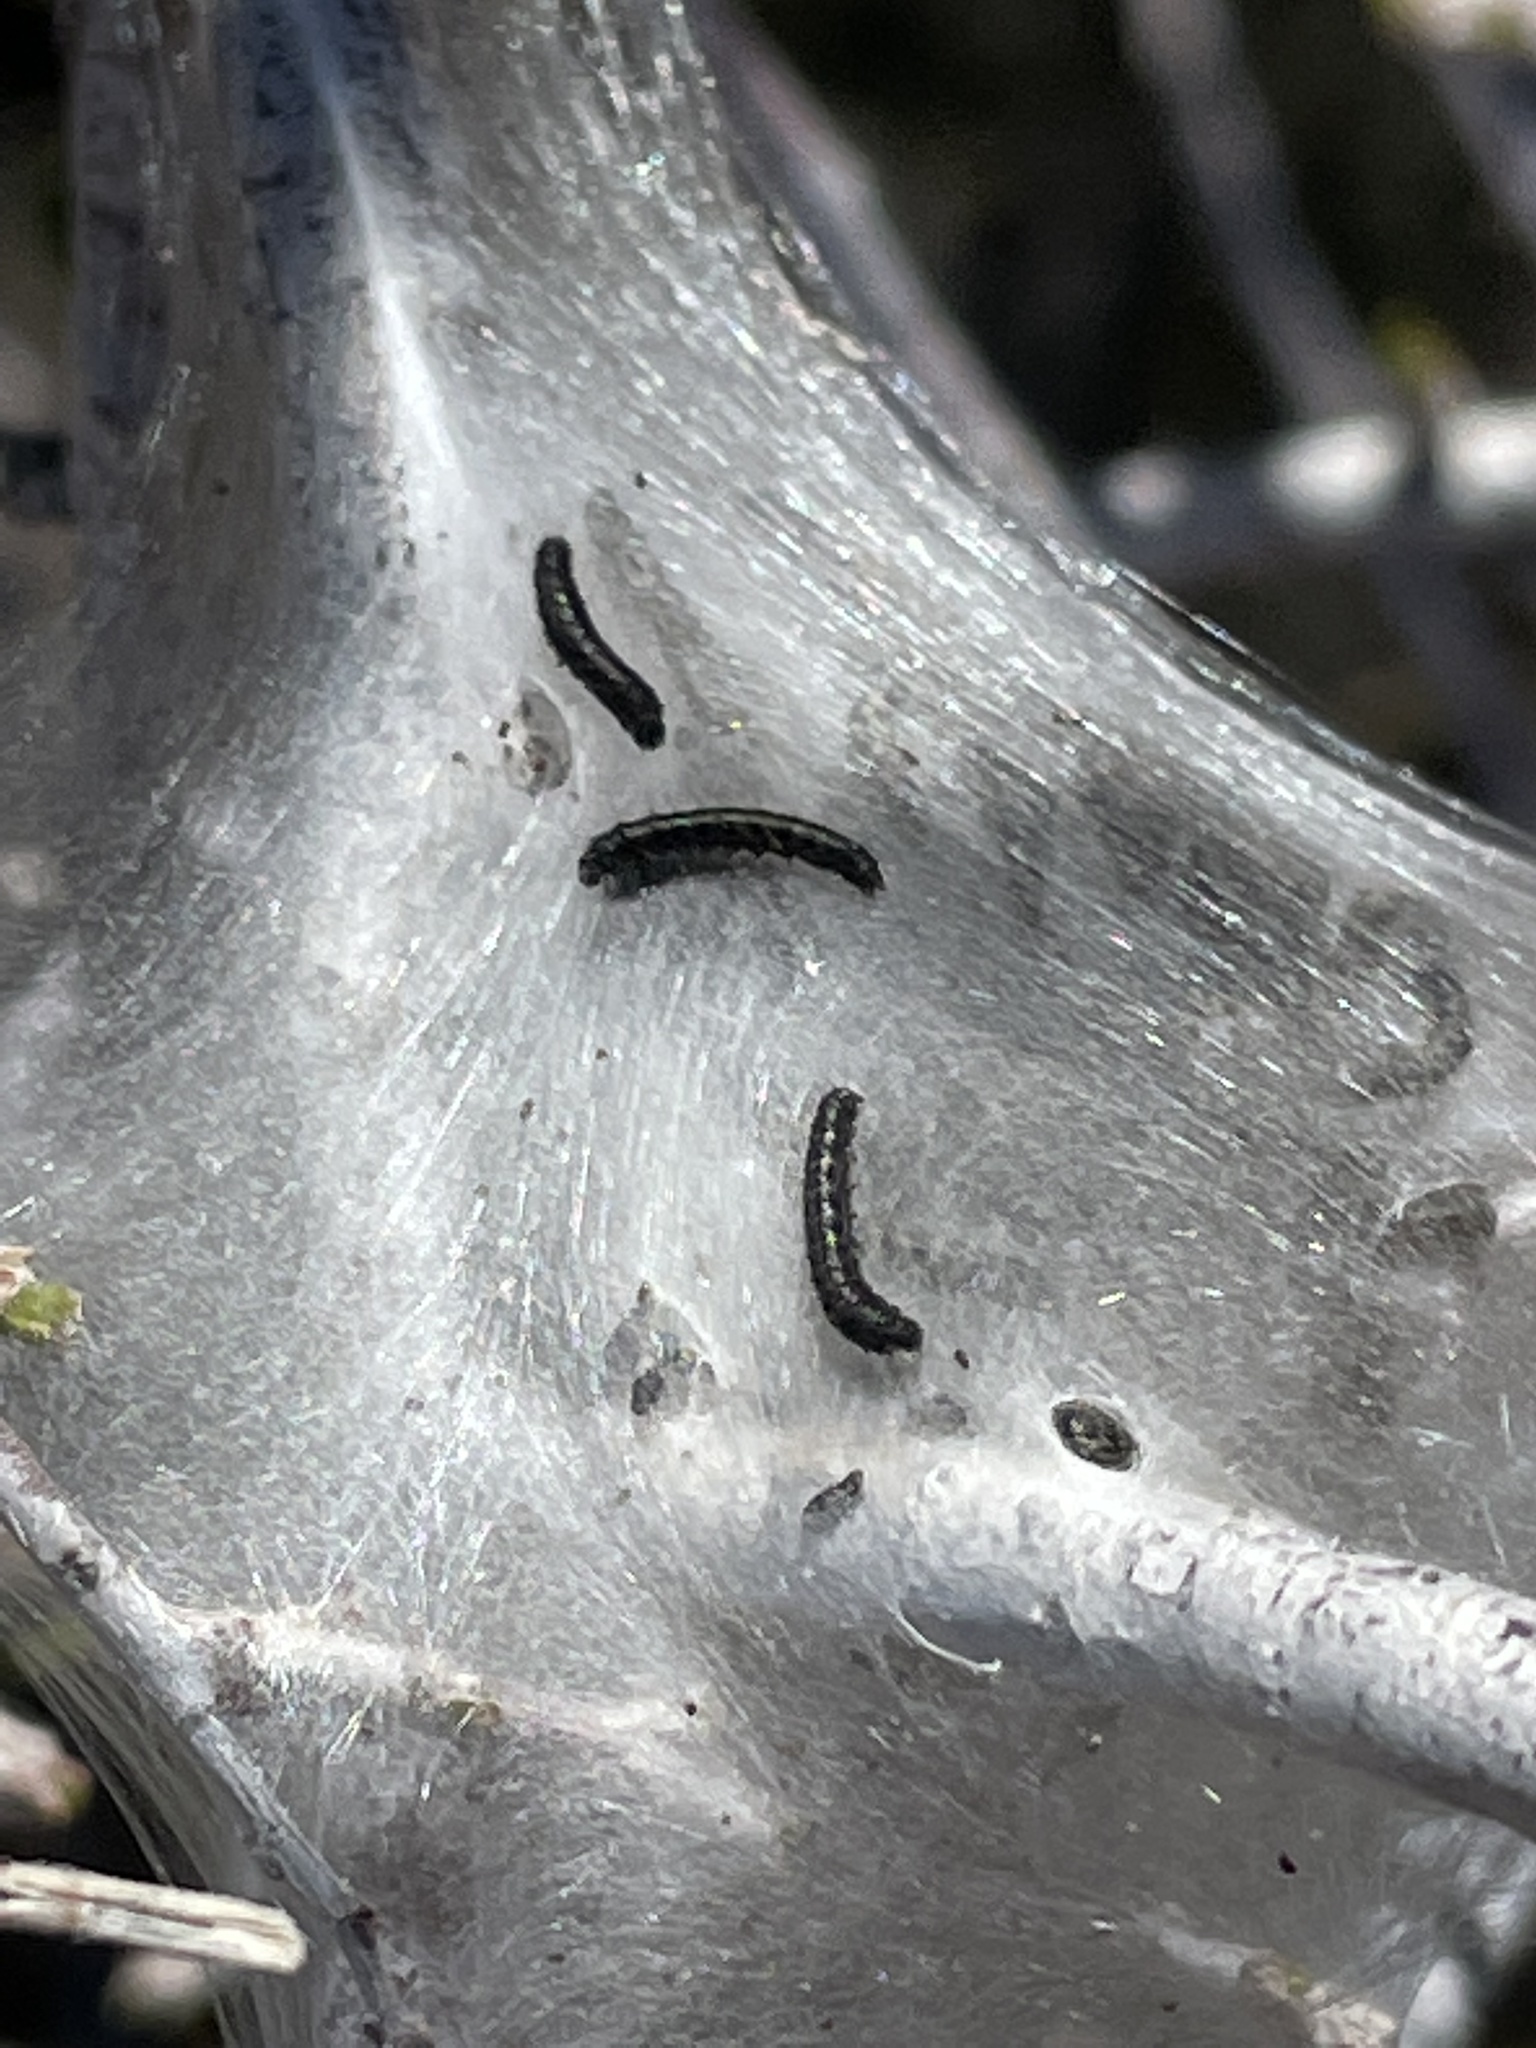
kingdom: Animalia
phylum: Arthropoda
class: Insecta
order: Lepidoptera
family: Lasiocampidae
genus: Malacosoma
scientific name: Malacosoma californica
